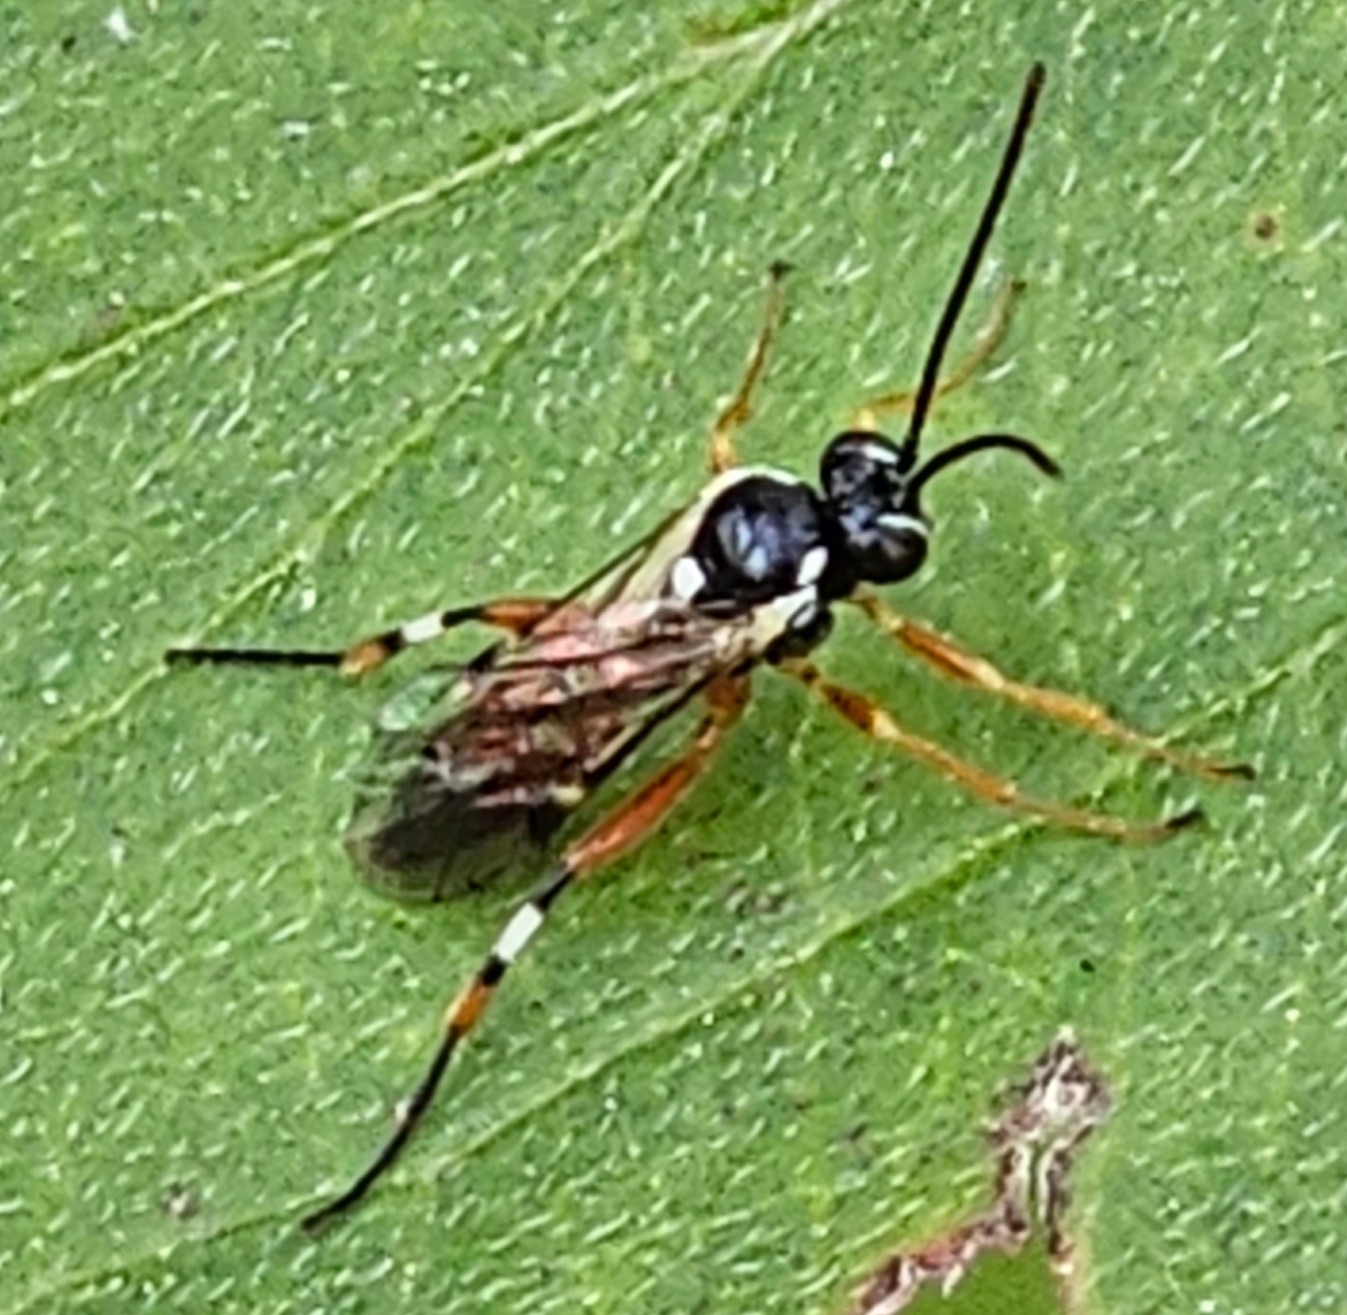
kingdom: Animalia
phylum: Arthropoda
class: Insecta
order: Hymenoptera
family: Ichneumonidae
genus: Diplazon
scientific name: Diplazon laetatorius
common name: Parasitoid wasp
